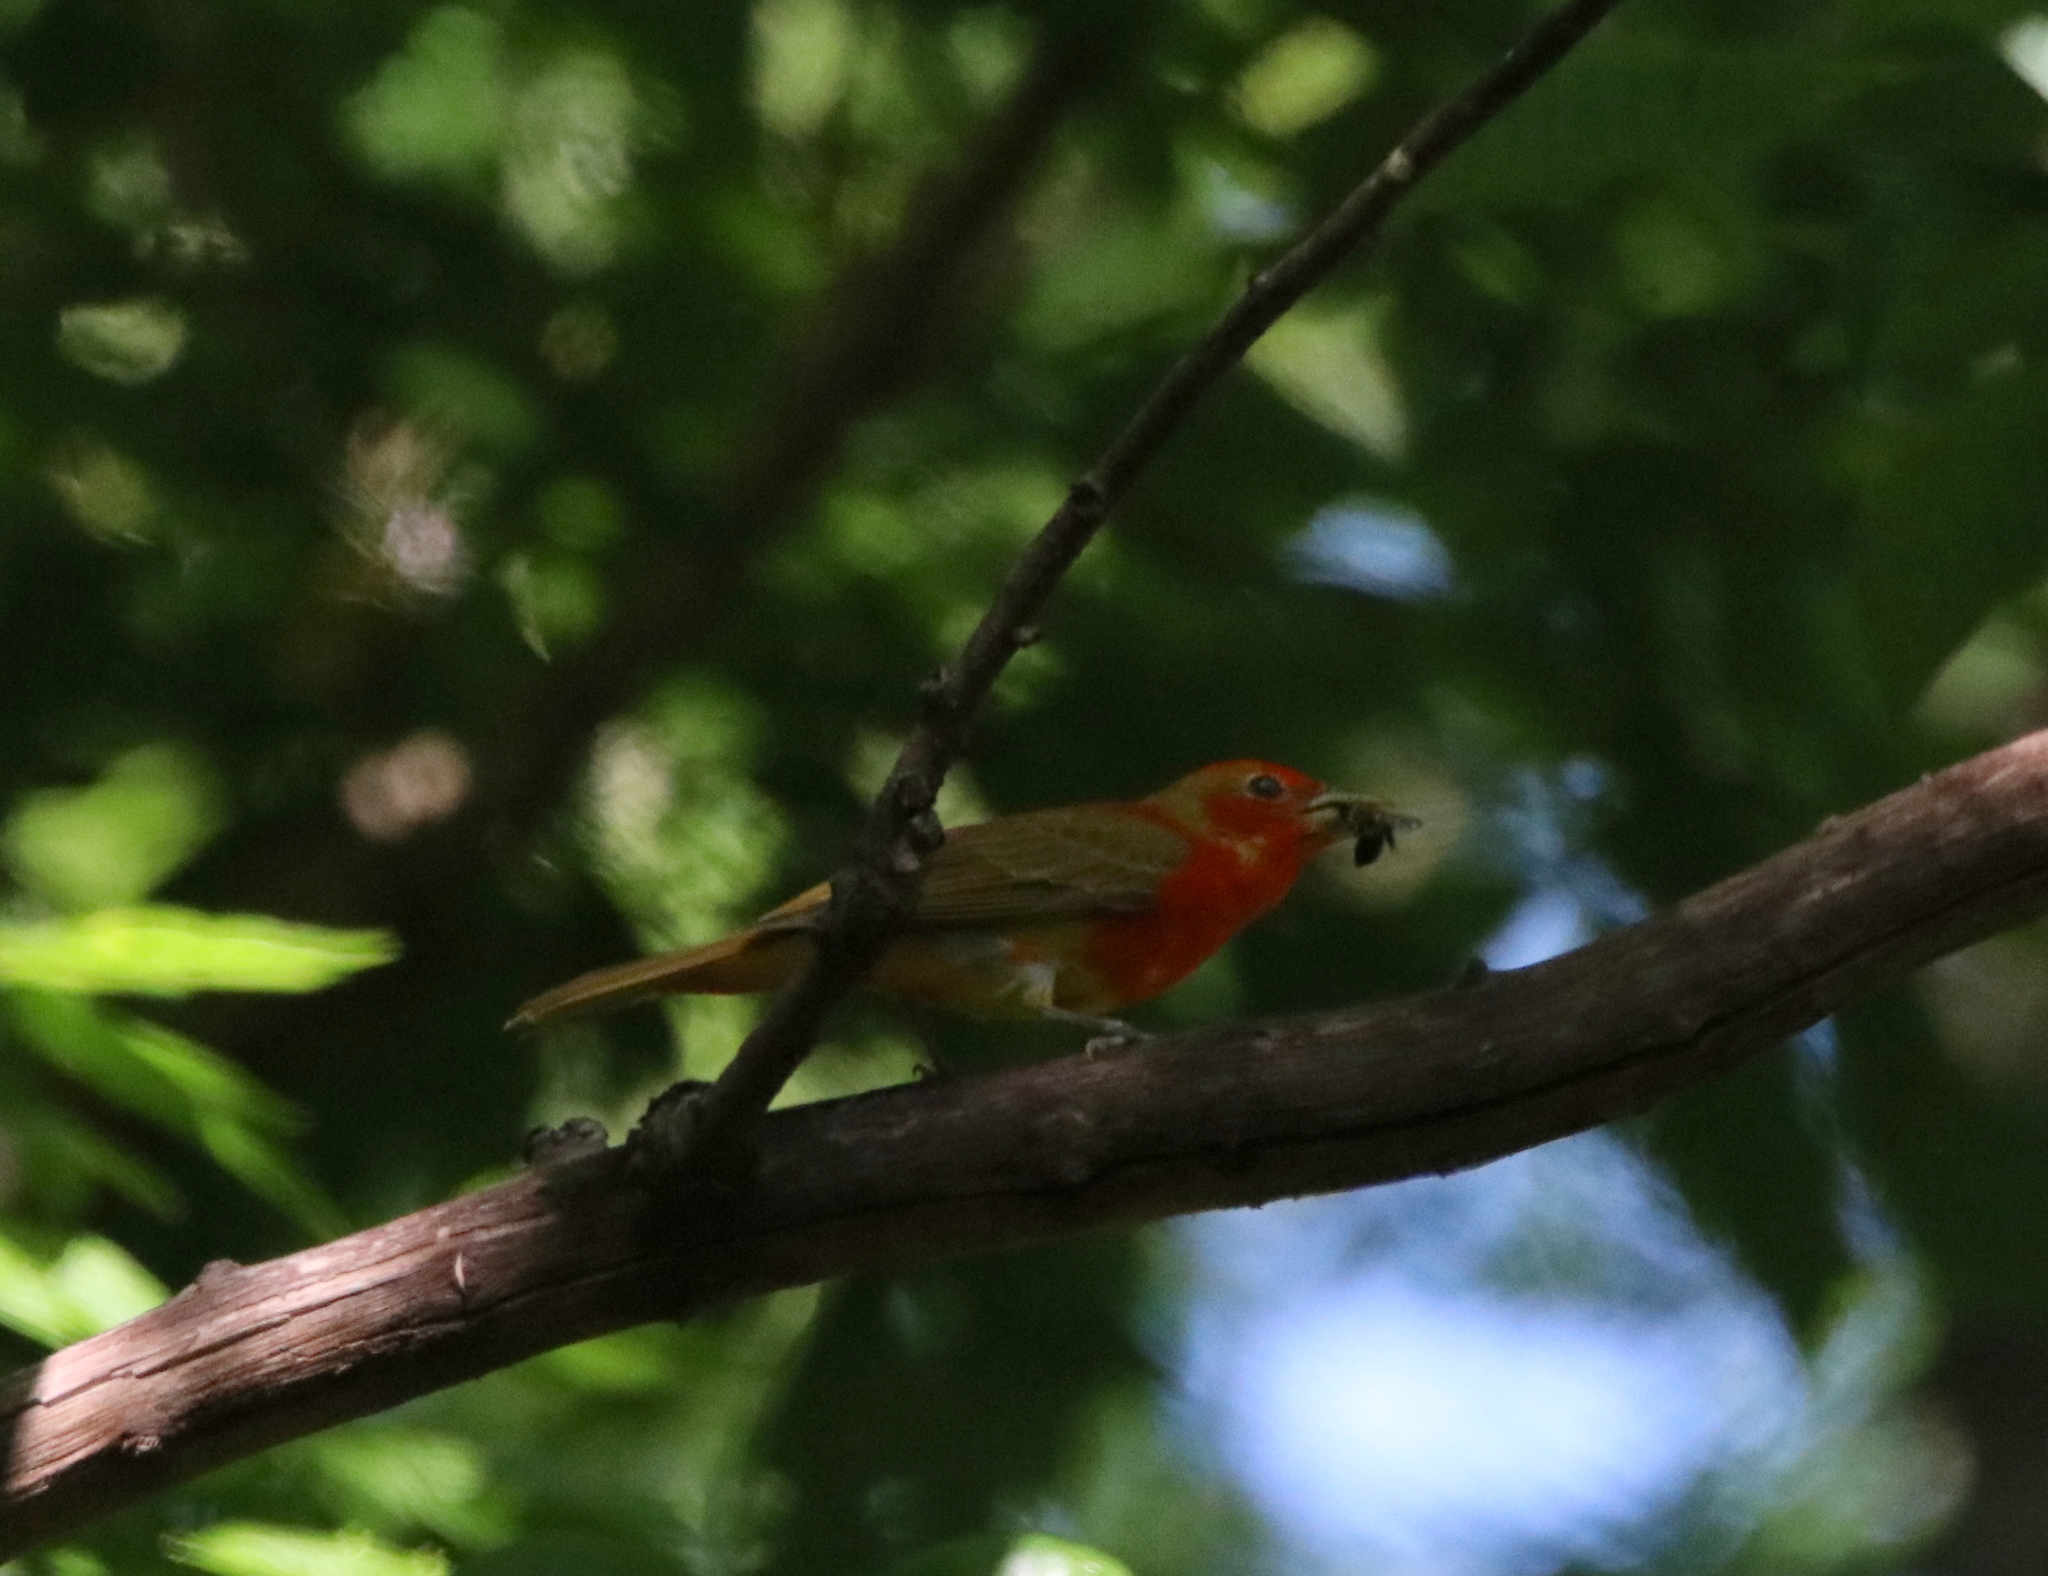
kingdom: Animalia
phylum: Chordata
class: Aves
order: Passeriformes
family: Cardinalidae
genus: Piranga
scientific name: Piranga rubra
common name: Summer tanager
